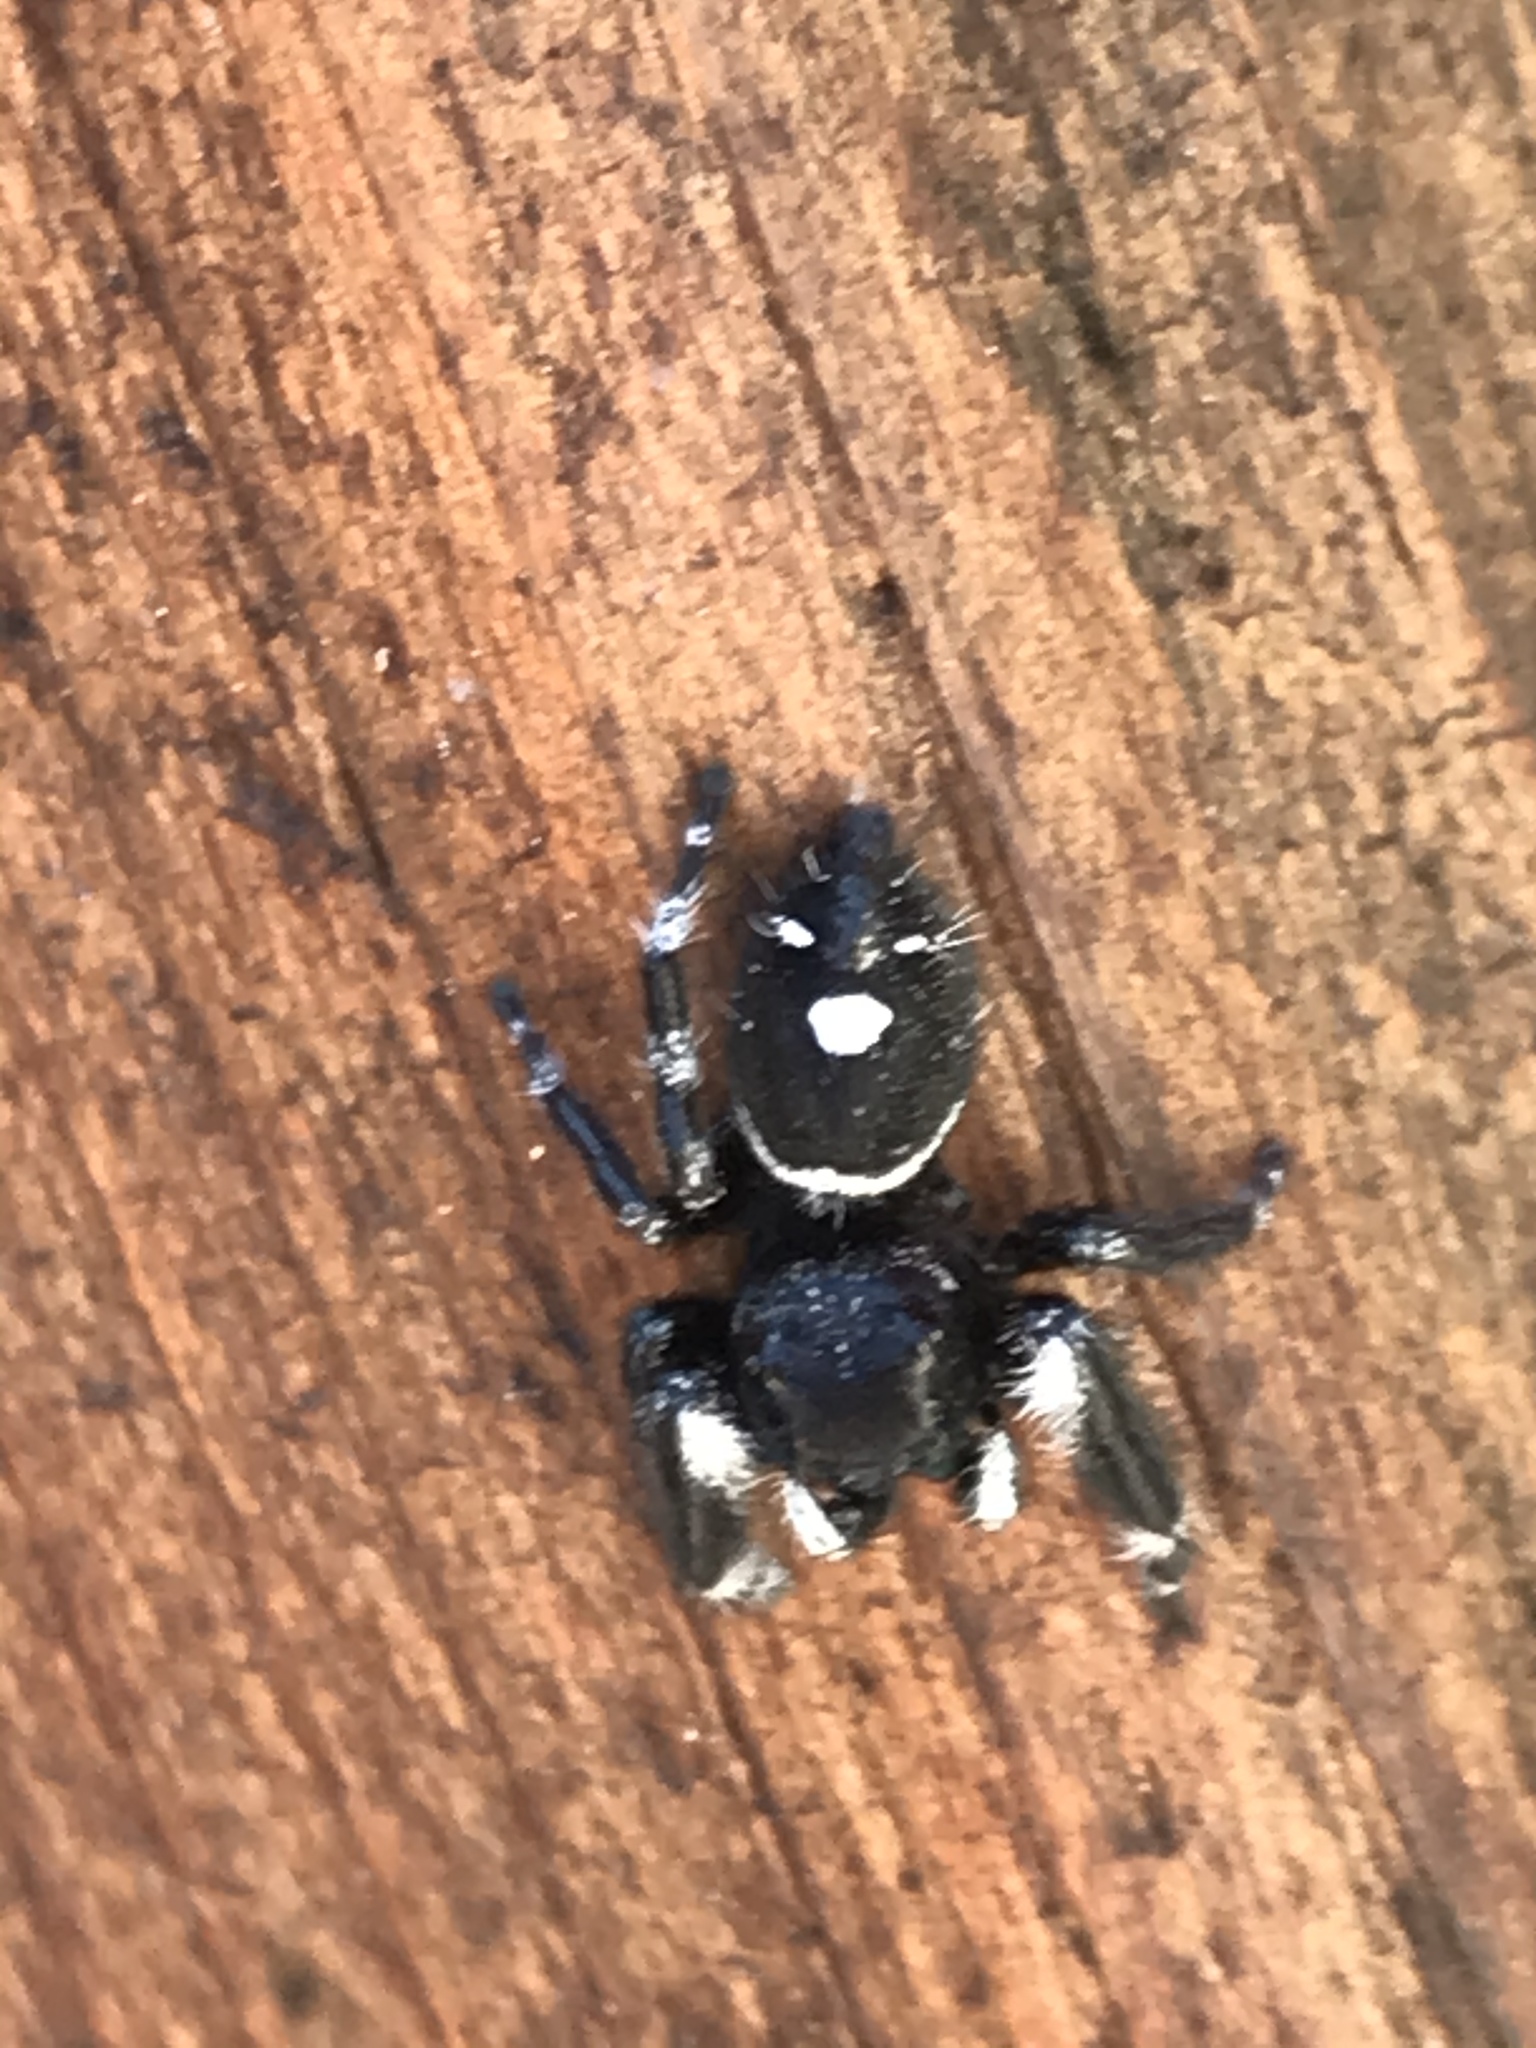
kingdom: Animalia
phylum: Arthropoda
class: Arachnida
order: Araneae
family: Salticidae
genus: Phidippus
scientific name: Phidippus audax
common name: Bold jumper
